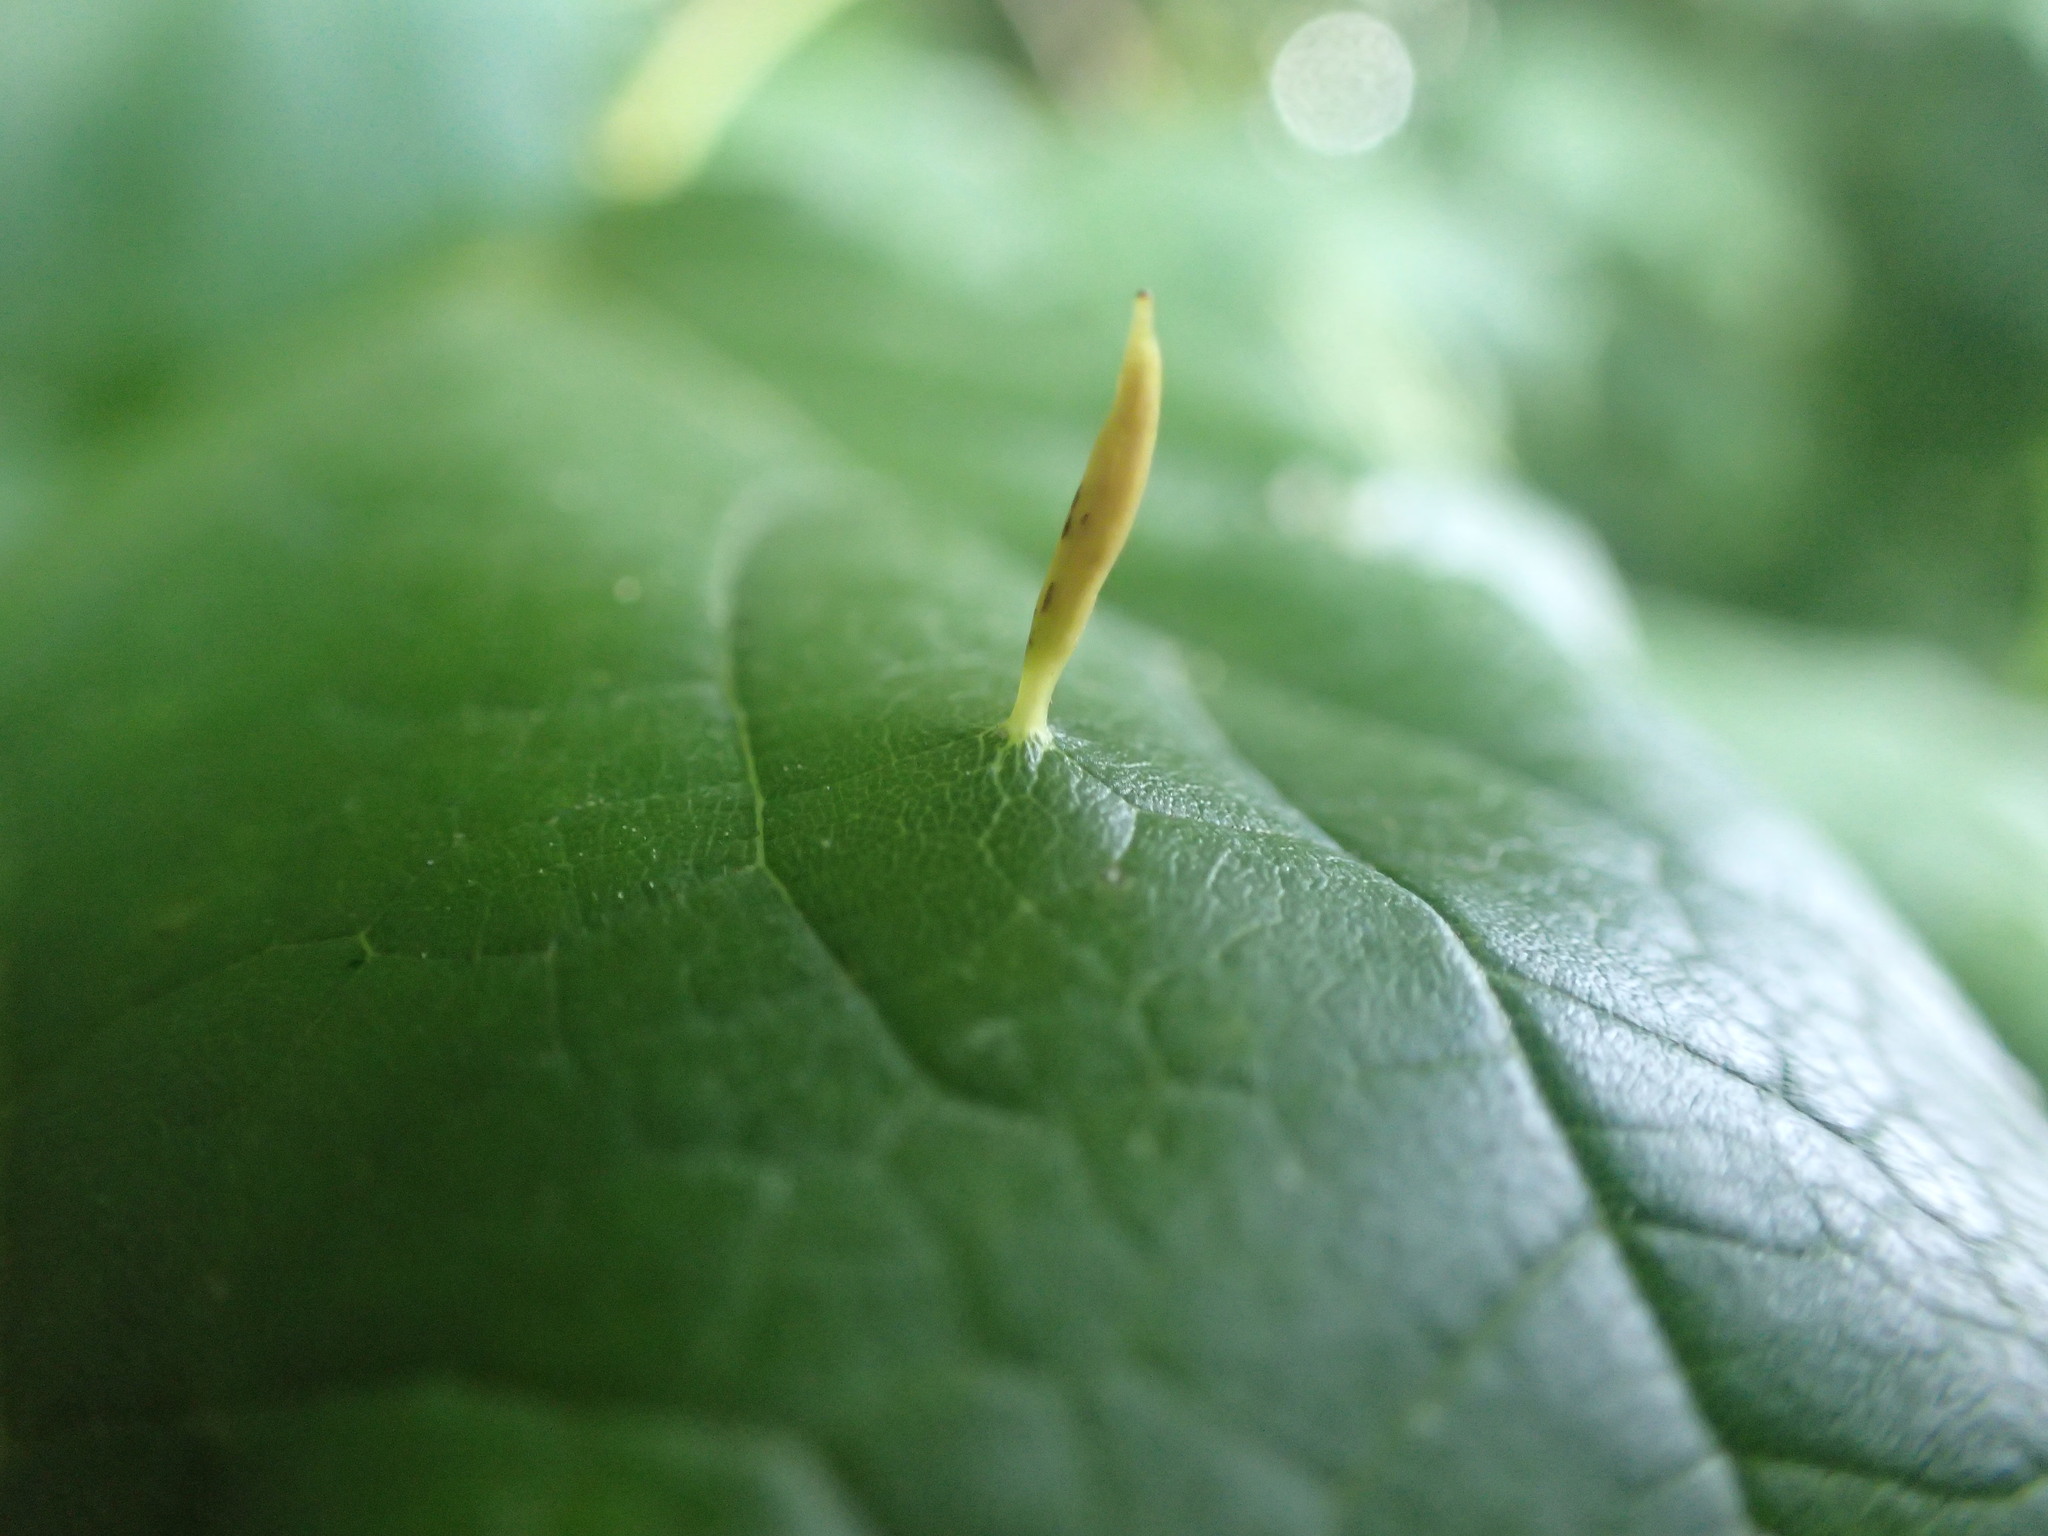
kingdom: Animalia
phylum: Arthropoda
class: Arachnida
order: Trombidiformes
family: Eriophyidae
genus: Vasates
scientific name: Vasates aceriscrumena
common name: Maple spindle gall mite
